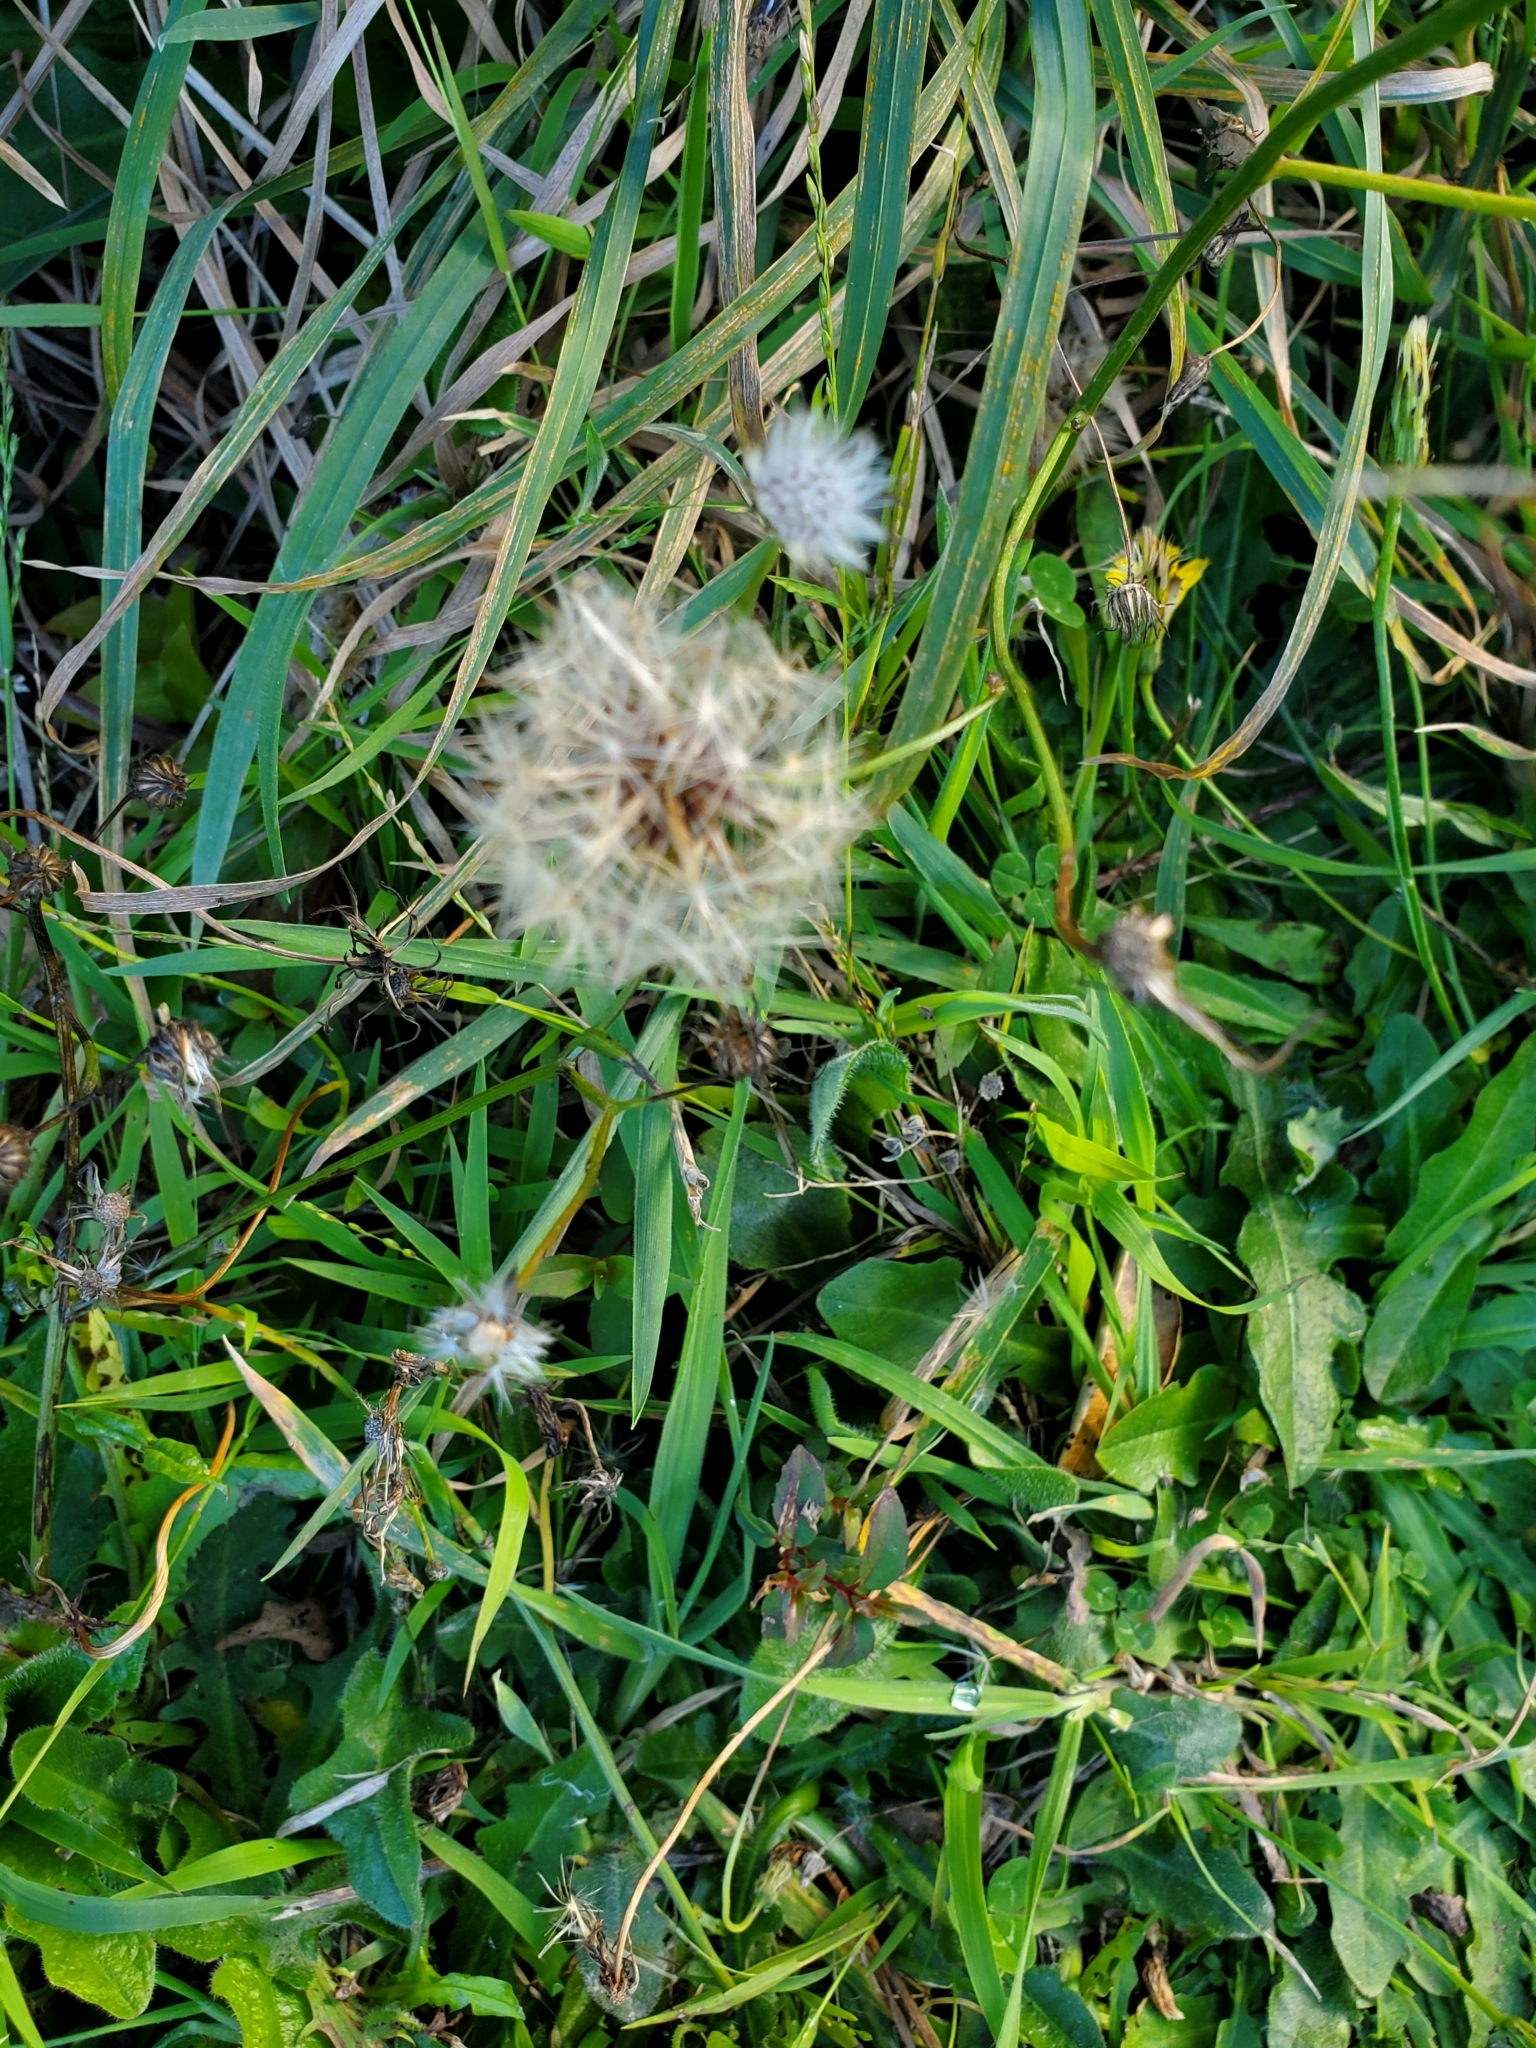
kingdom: Plantae
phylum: Tracheophyta
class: Magnoliopsida
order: Asterales
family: Asteraceae
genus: Hypochaeris
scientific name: Hypochaeris radicata
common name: Flatweed
